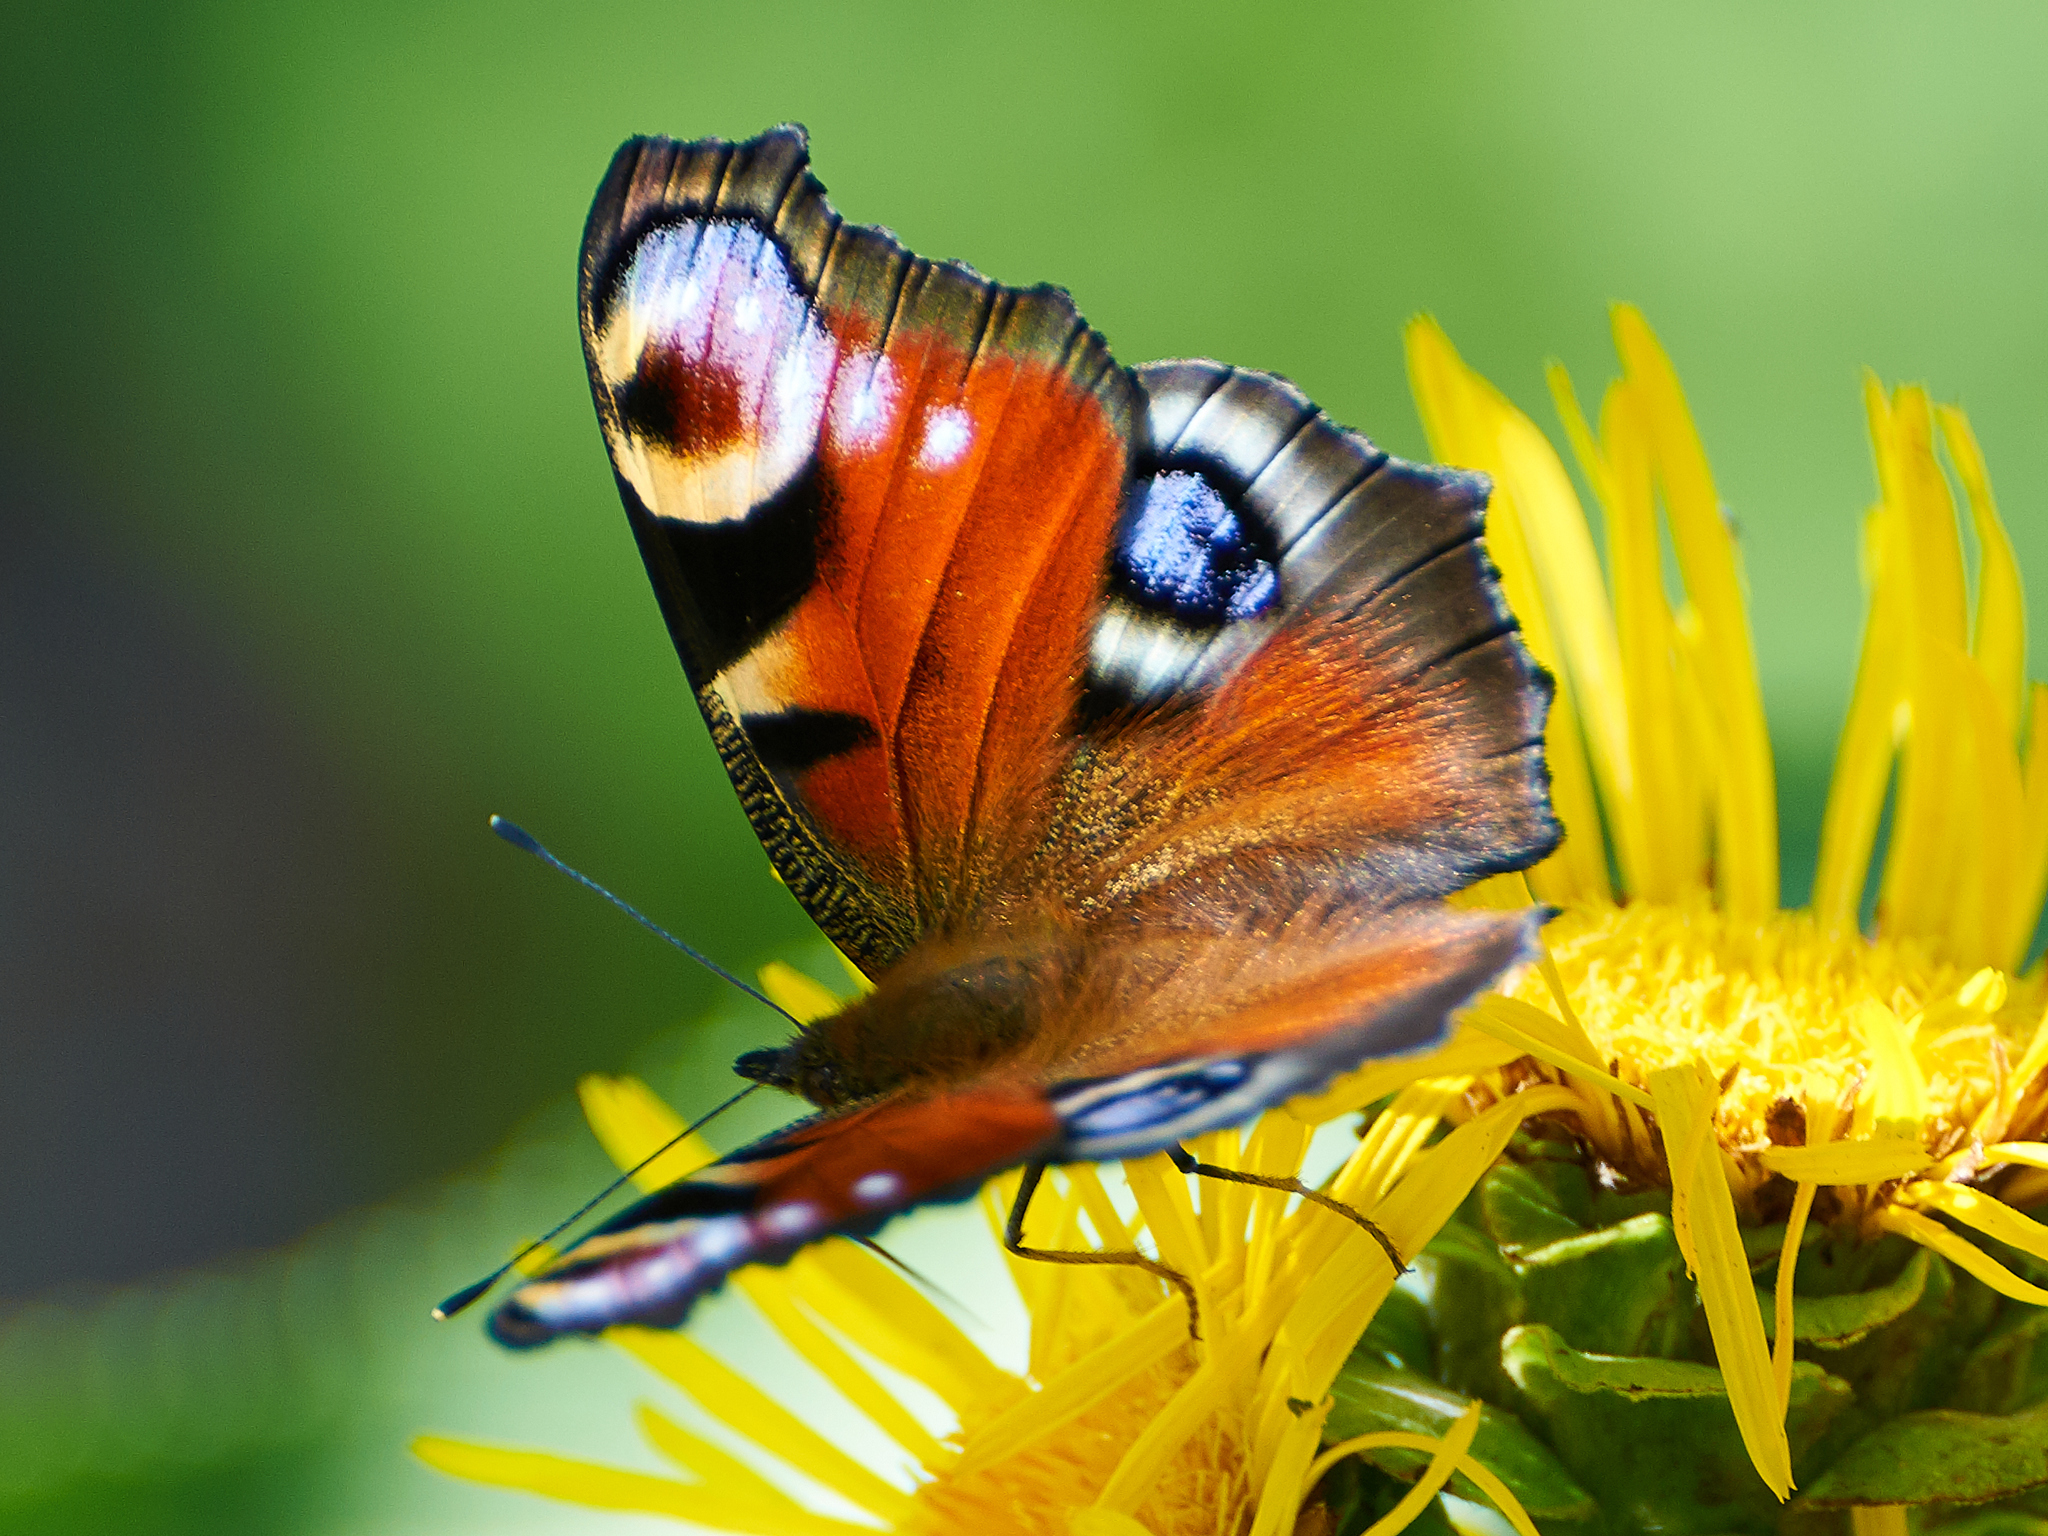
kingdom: Animalia
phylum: Arthropoda
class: Insecta
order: Lepidoptera
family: Nymphalidae
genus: Aglais
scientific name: Aglais io
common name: Peacock
